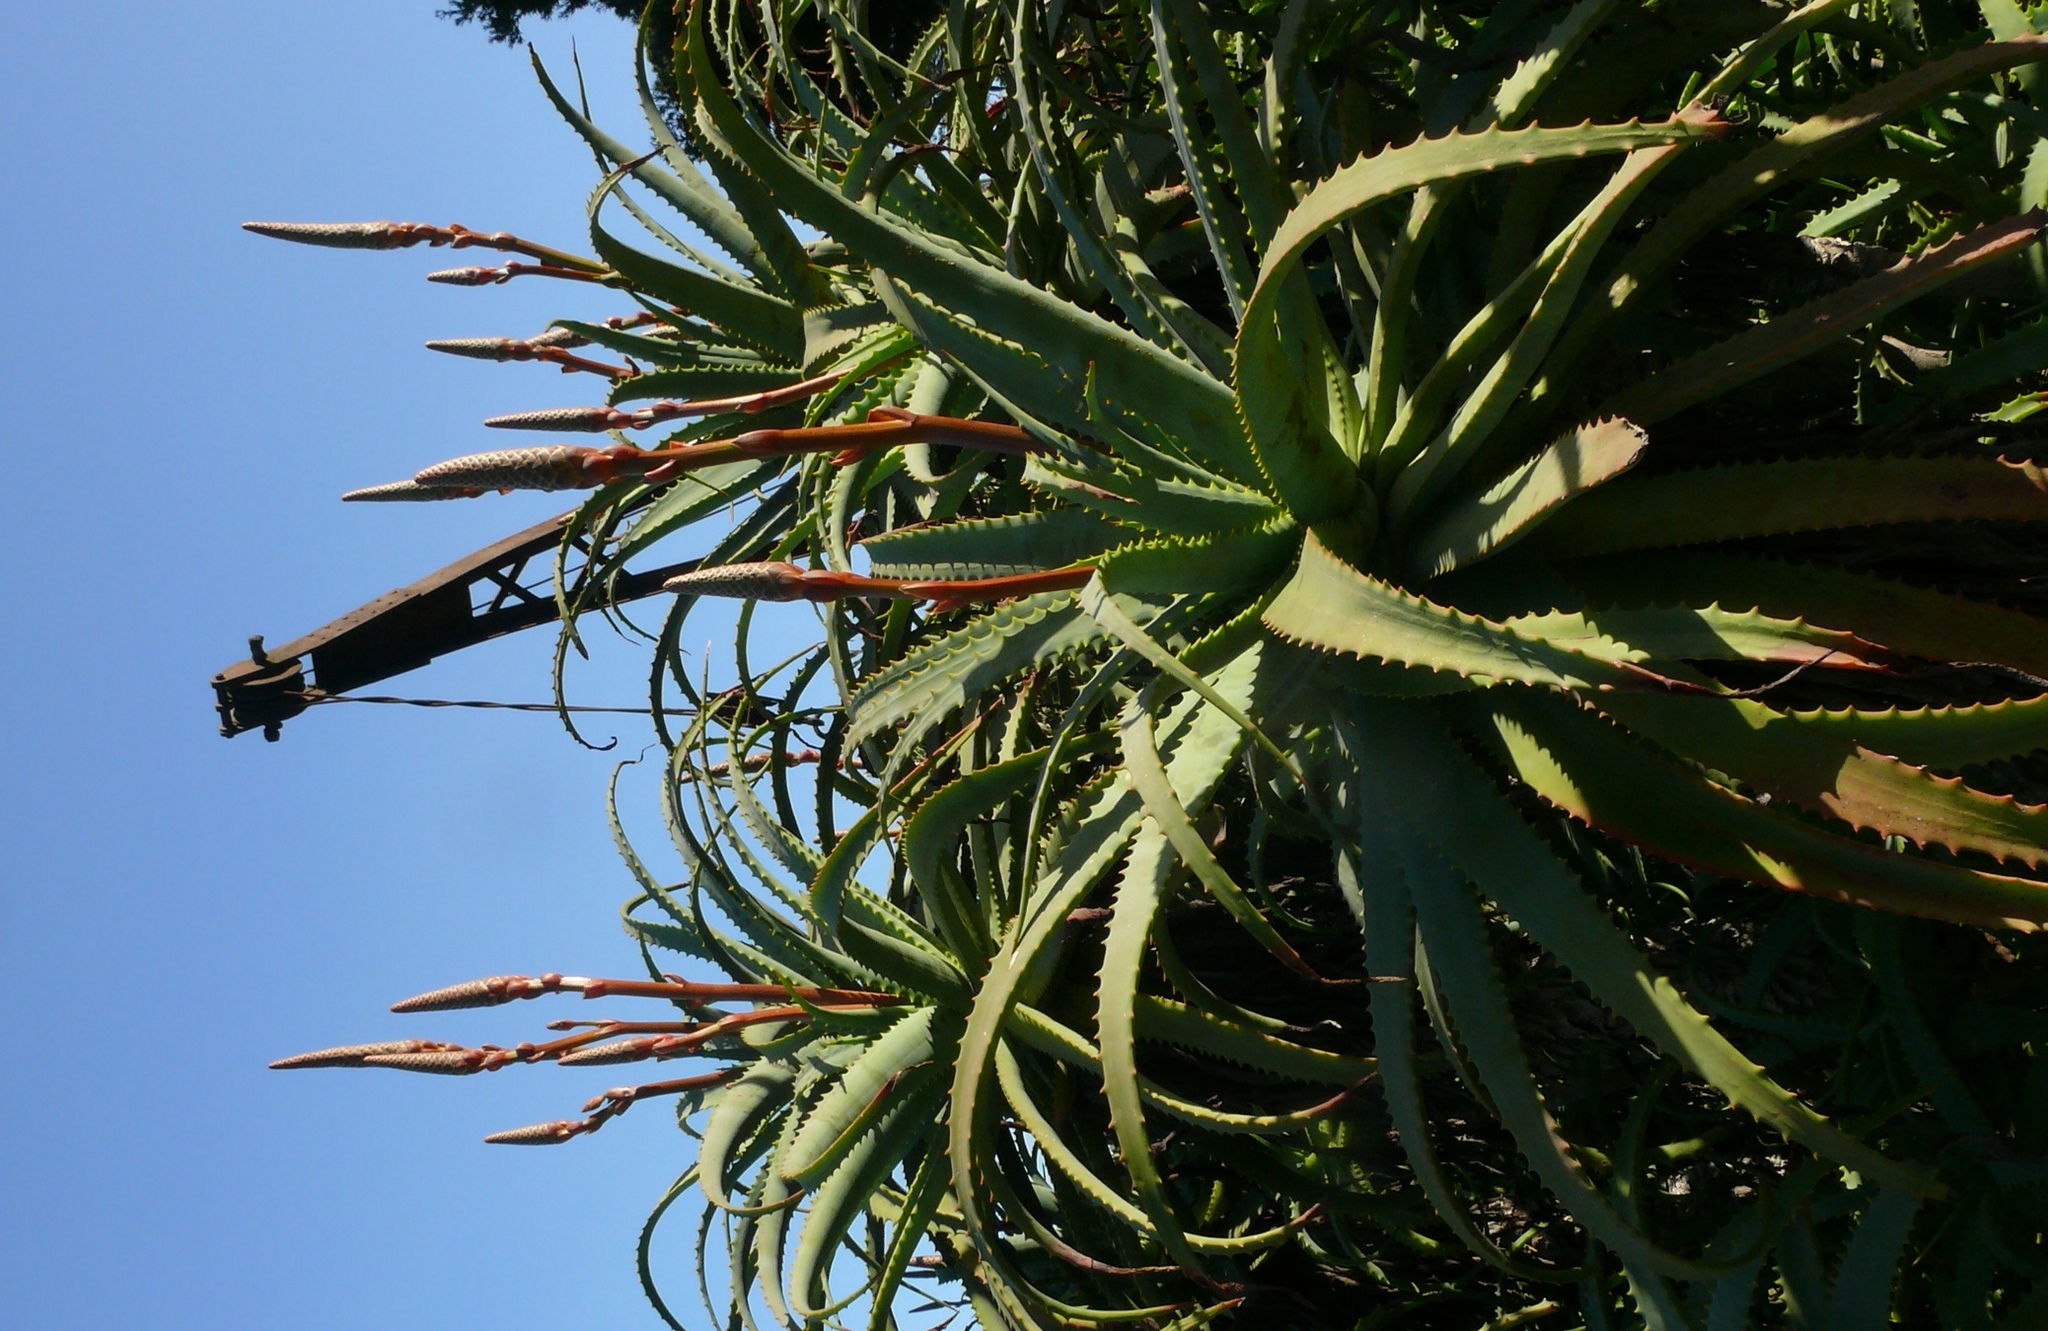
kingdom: Plantae
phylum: Tracheophyta
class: Liliopsida
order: Asparagales
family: Asphodelaceae
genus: Aloe
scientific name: Aloe arborescens
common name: Candelabra aloe
